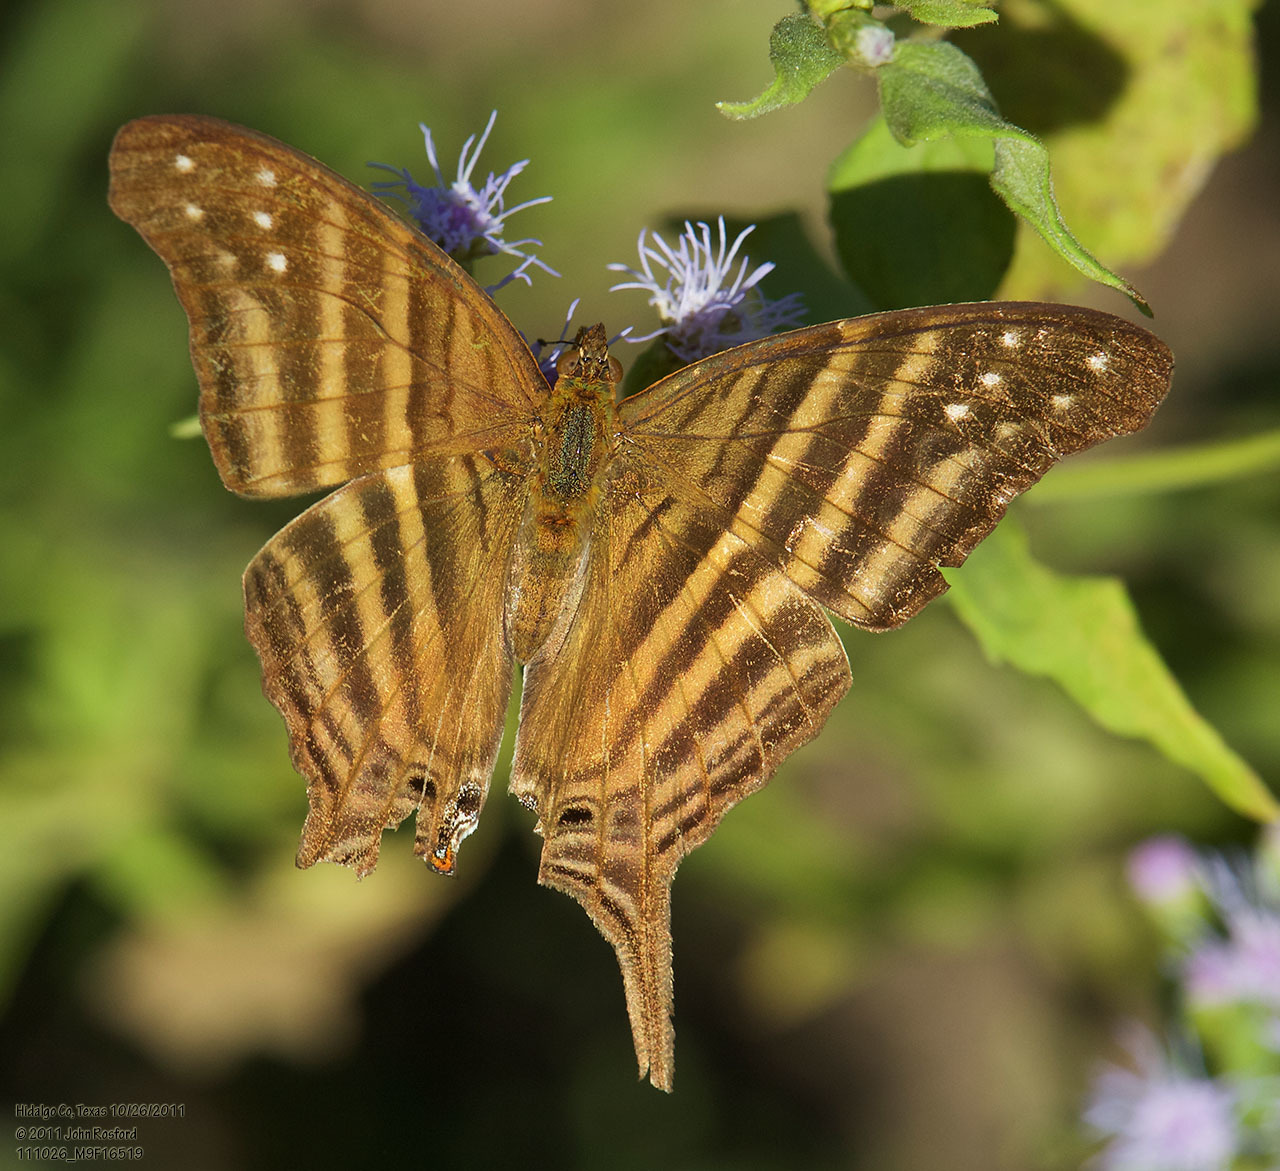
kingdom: Animalia
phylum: Arthropoda
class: Insecta
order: Lepidoptera
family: Nymphalidae
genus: Marpesia
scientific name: Marpesia chiron
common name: Many-banded daggerwing
